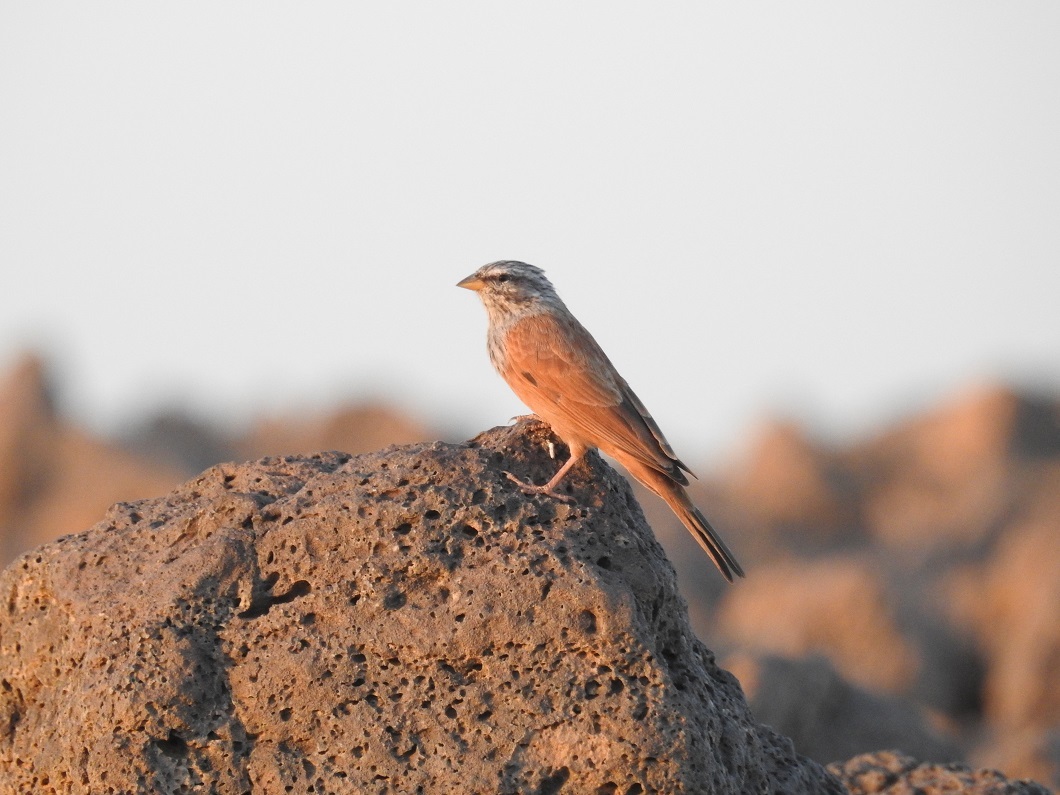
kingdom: Animalia
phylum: Chordata
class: Aves
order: Passeriformes
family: Emberizidae
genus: Emberiza
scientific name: Emberiza sahari
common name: House bunting
